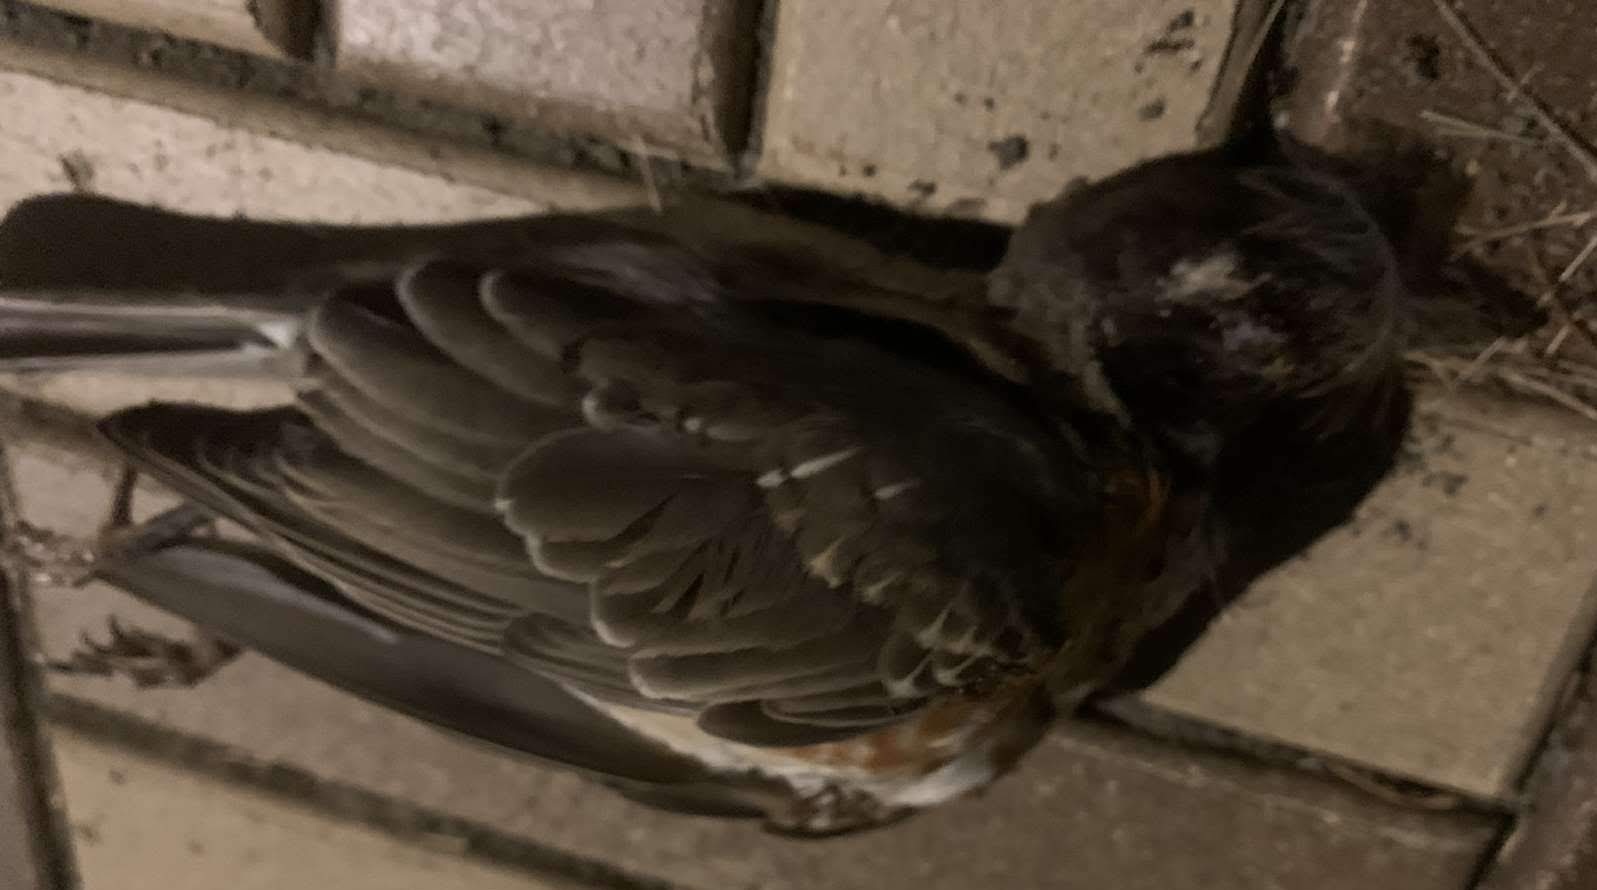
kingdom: Animalia
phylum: Chordata
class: Aves
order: Passeriformes
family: Turdidae
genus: Turdus
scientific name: Turdus migratorius
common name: American robin
